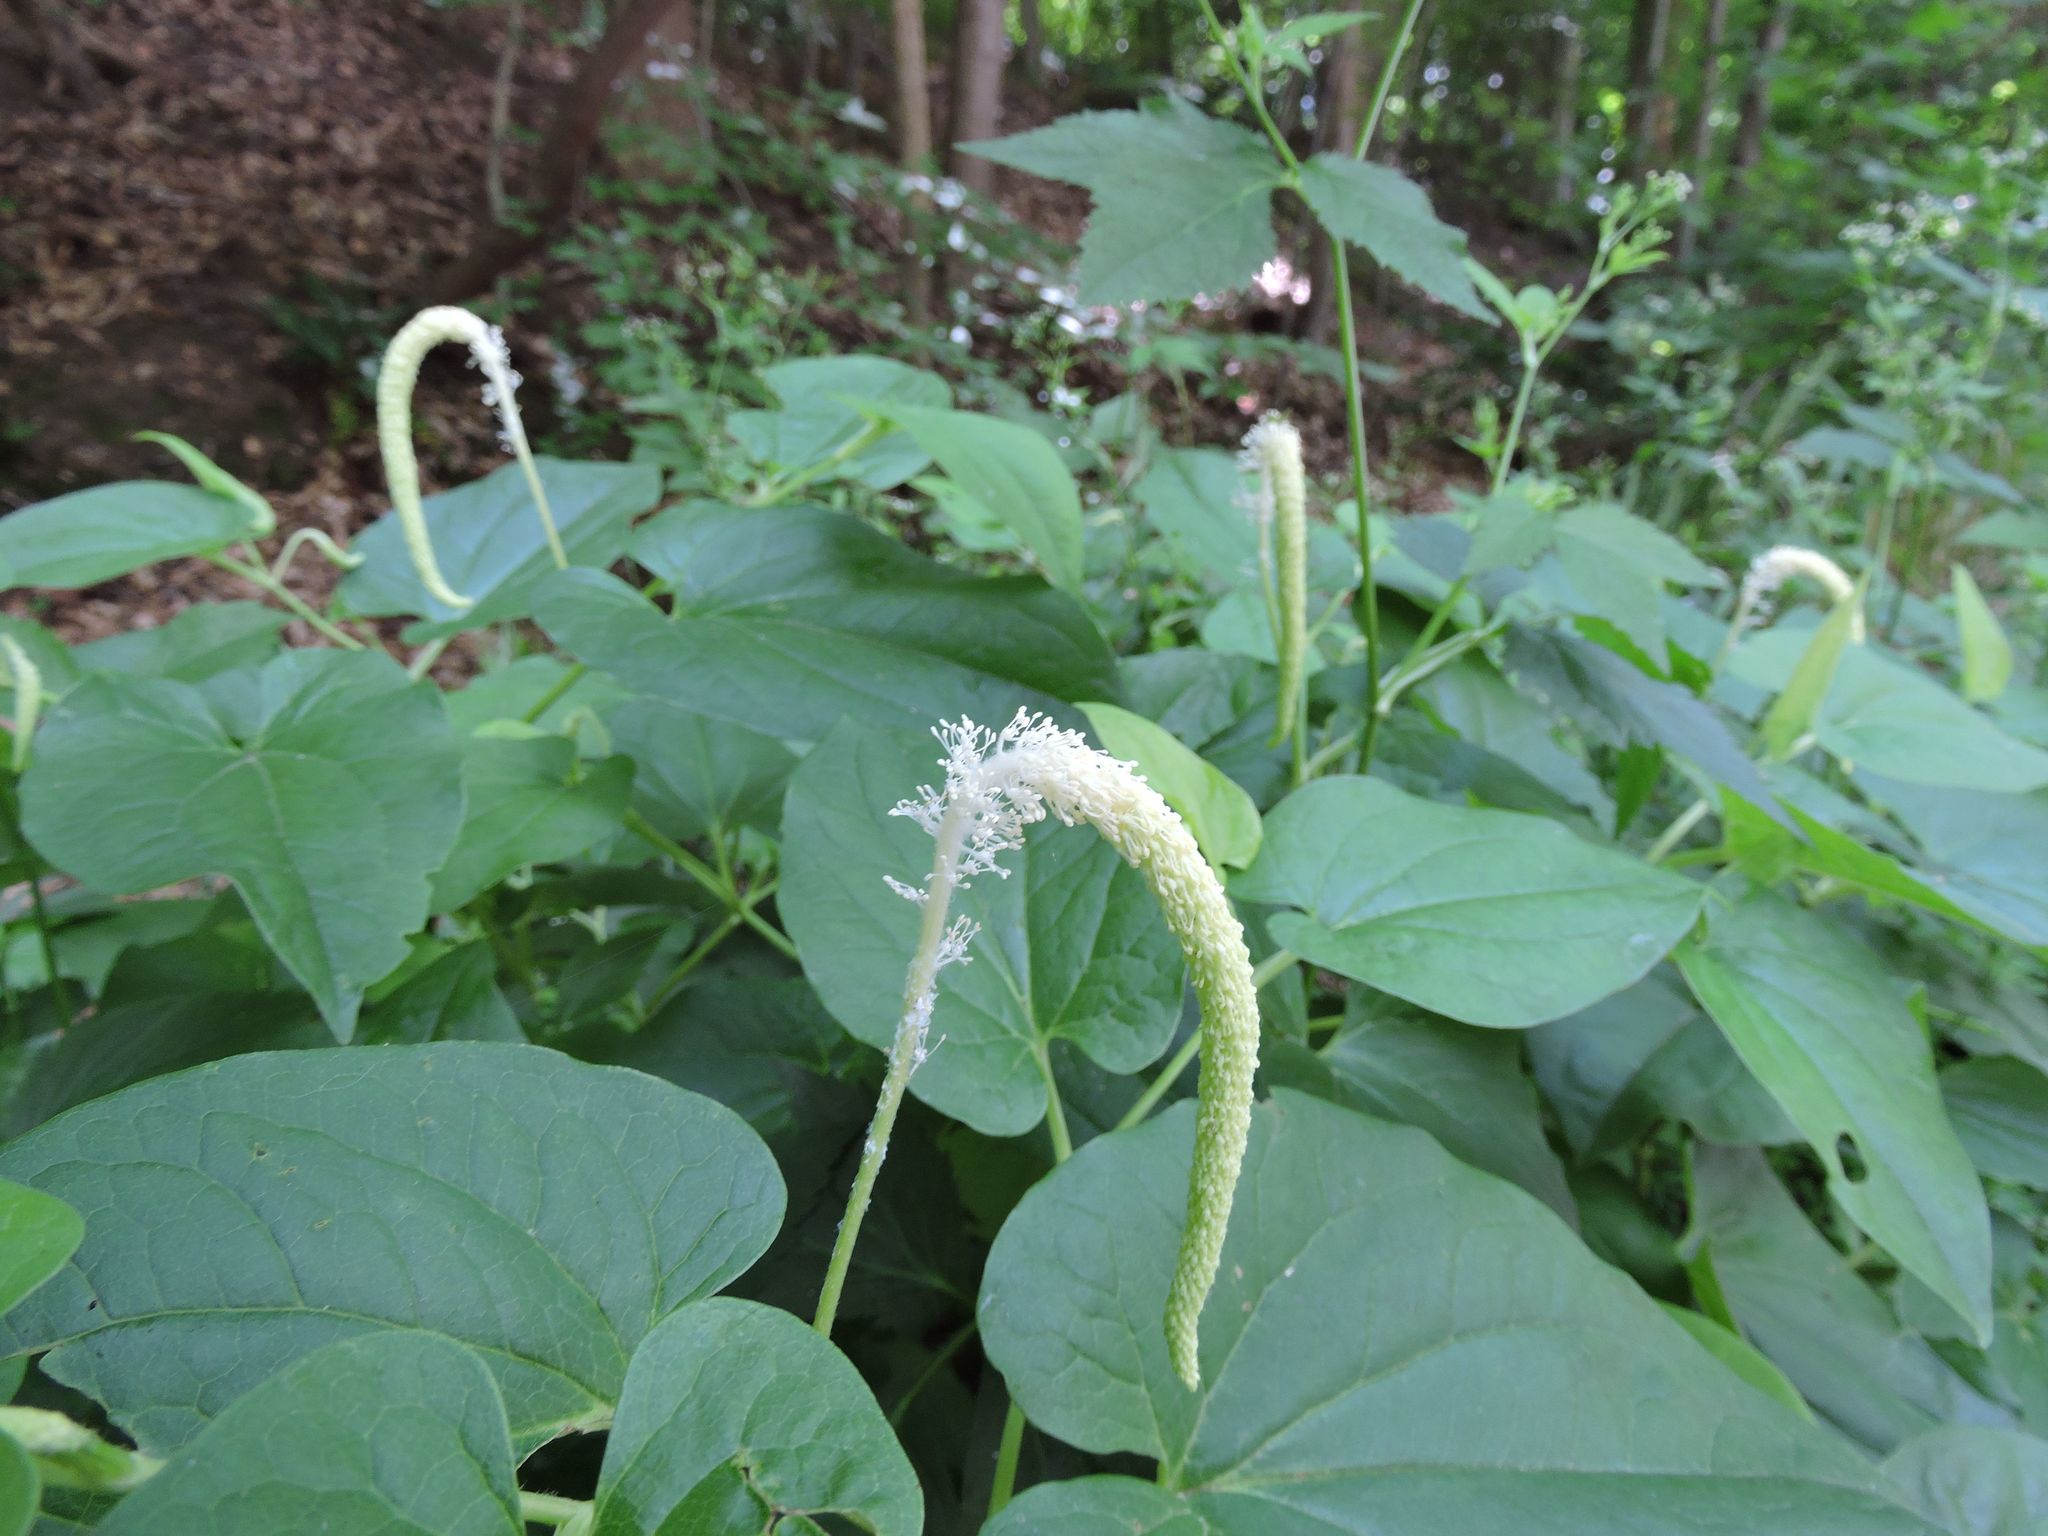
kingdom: Plantae
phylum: Tracheophyta
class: Magnoliopsida
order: Piperales
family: Saururaceae
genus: Saururus
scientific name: Saururus cernuus
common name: Lizard's-tail
